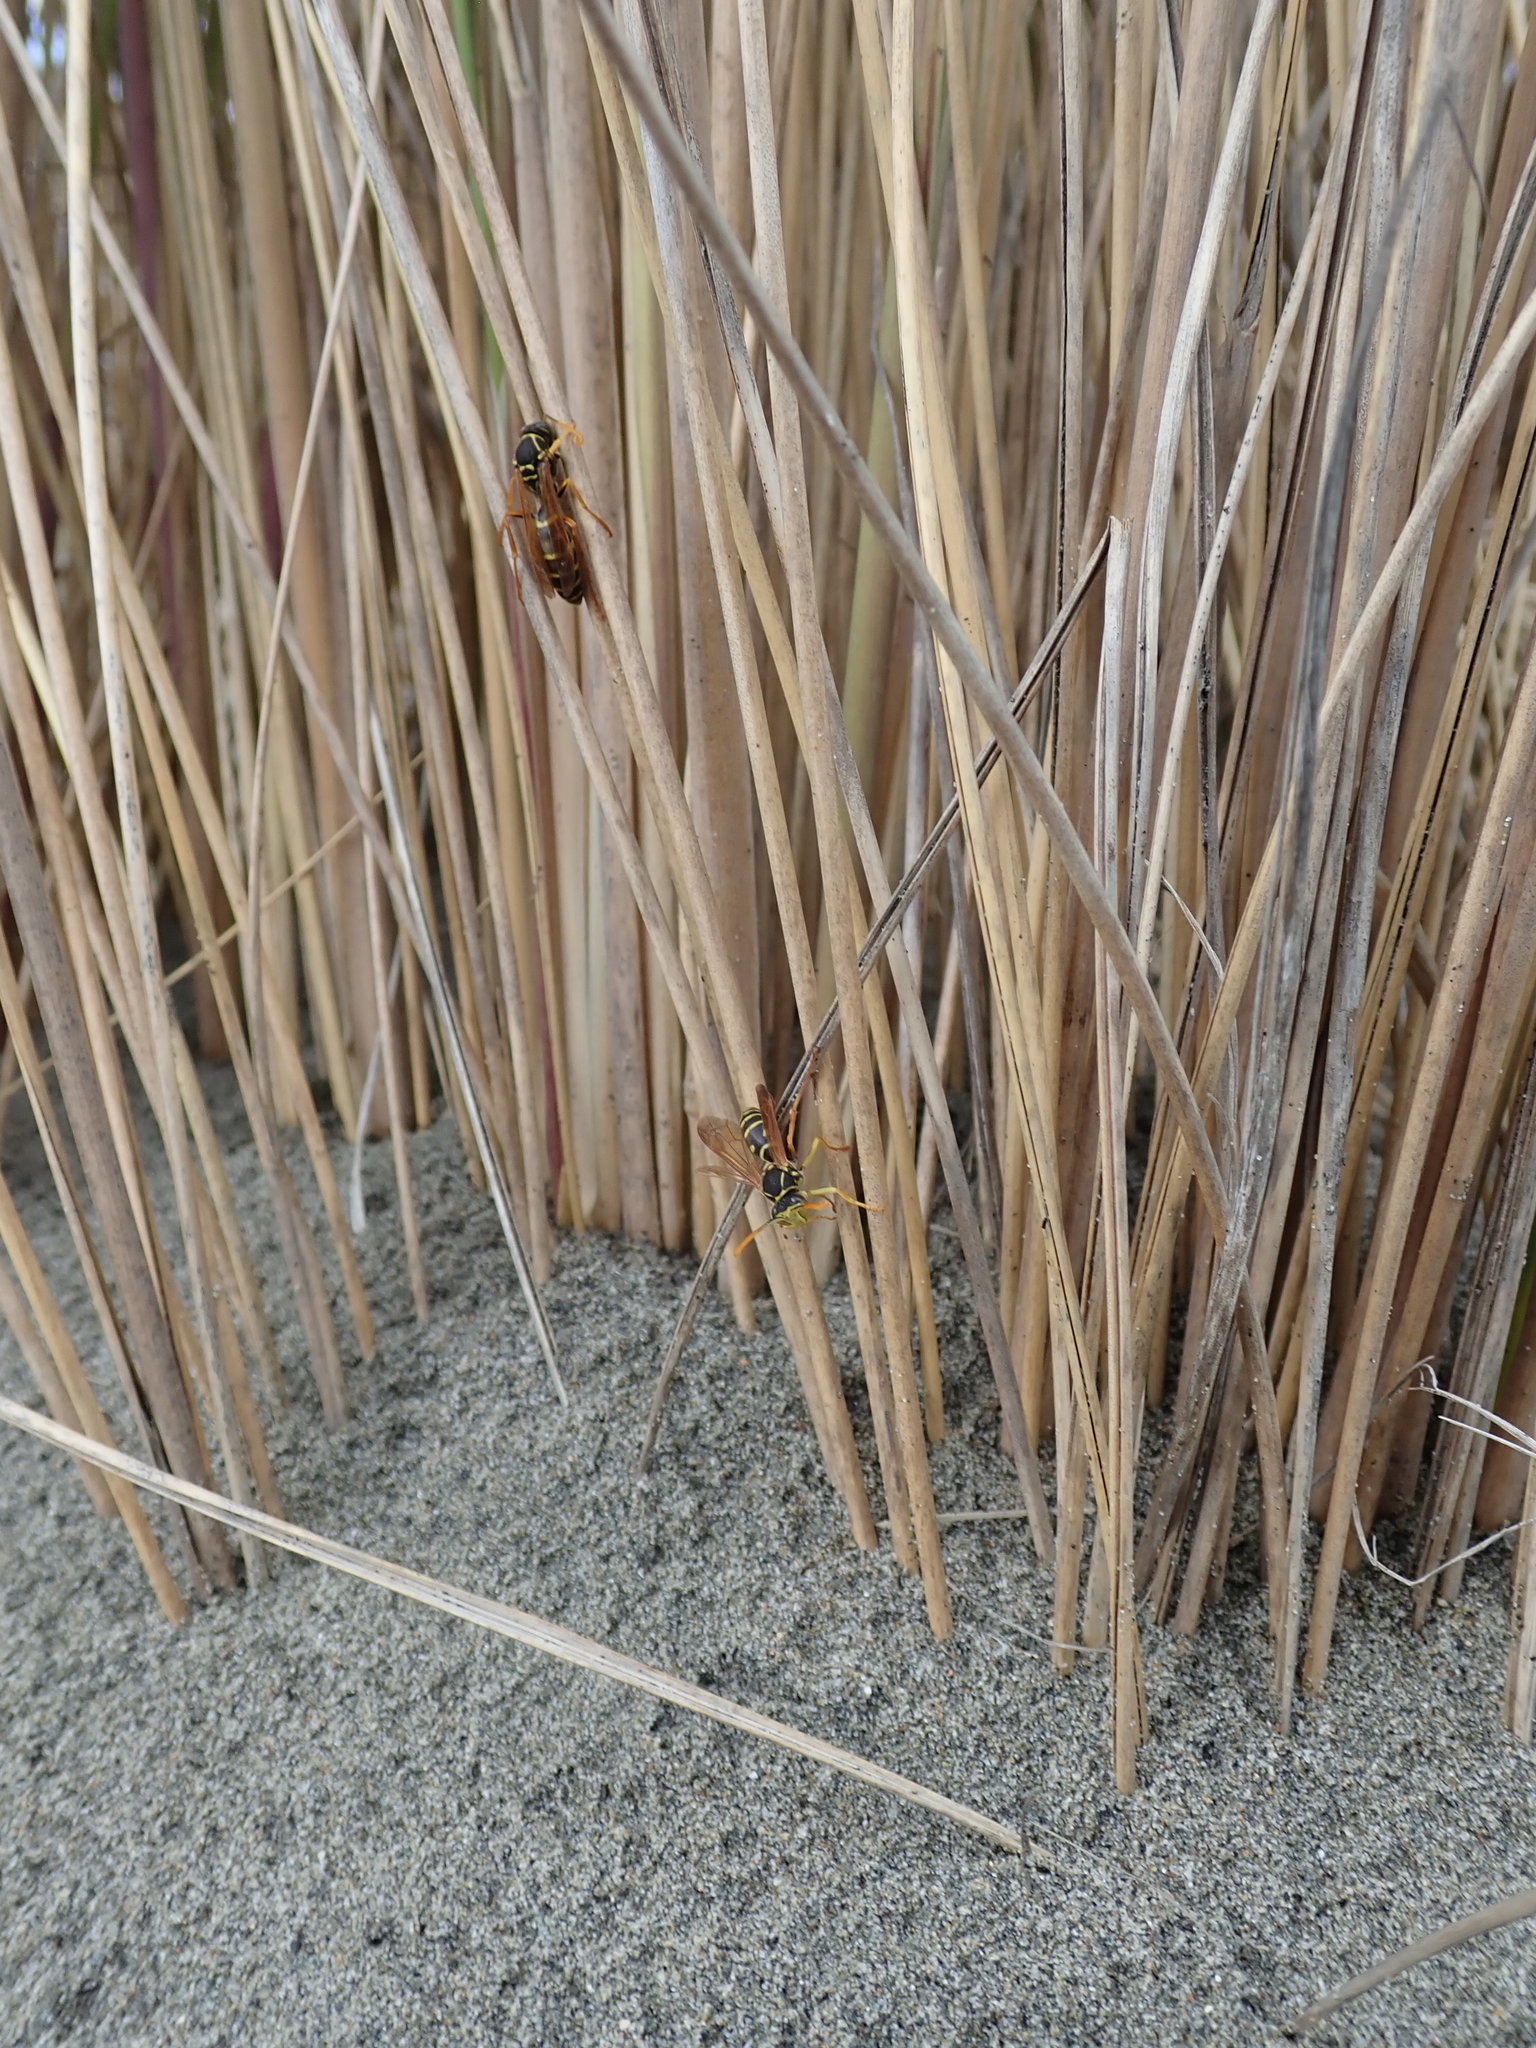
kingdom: Animalia
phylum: Arthropoda
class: Insecta
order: Hymenoptera
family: Eumenidae
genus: Polistes
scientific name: Polistes chinensis
